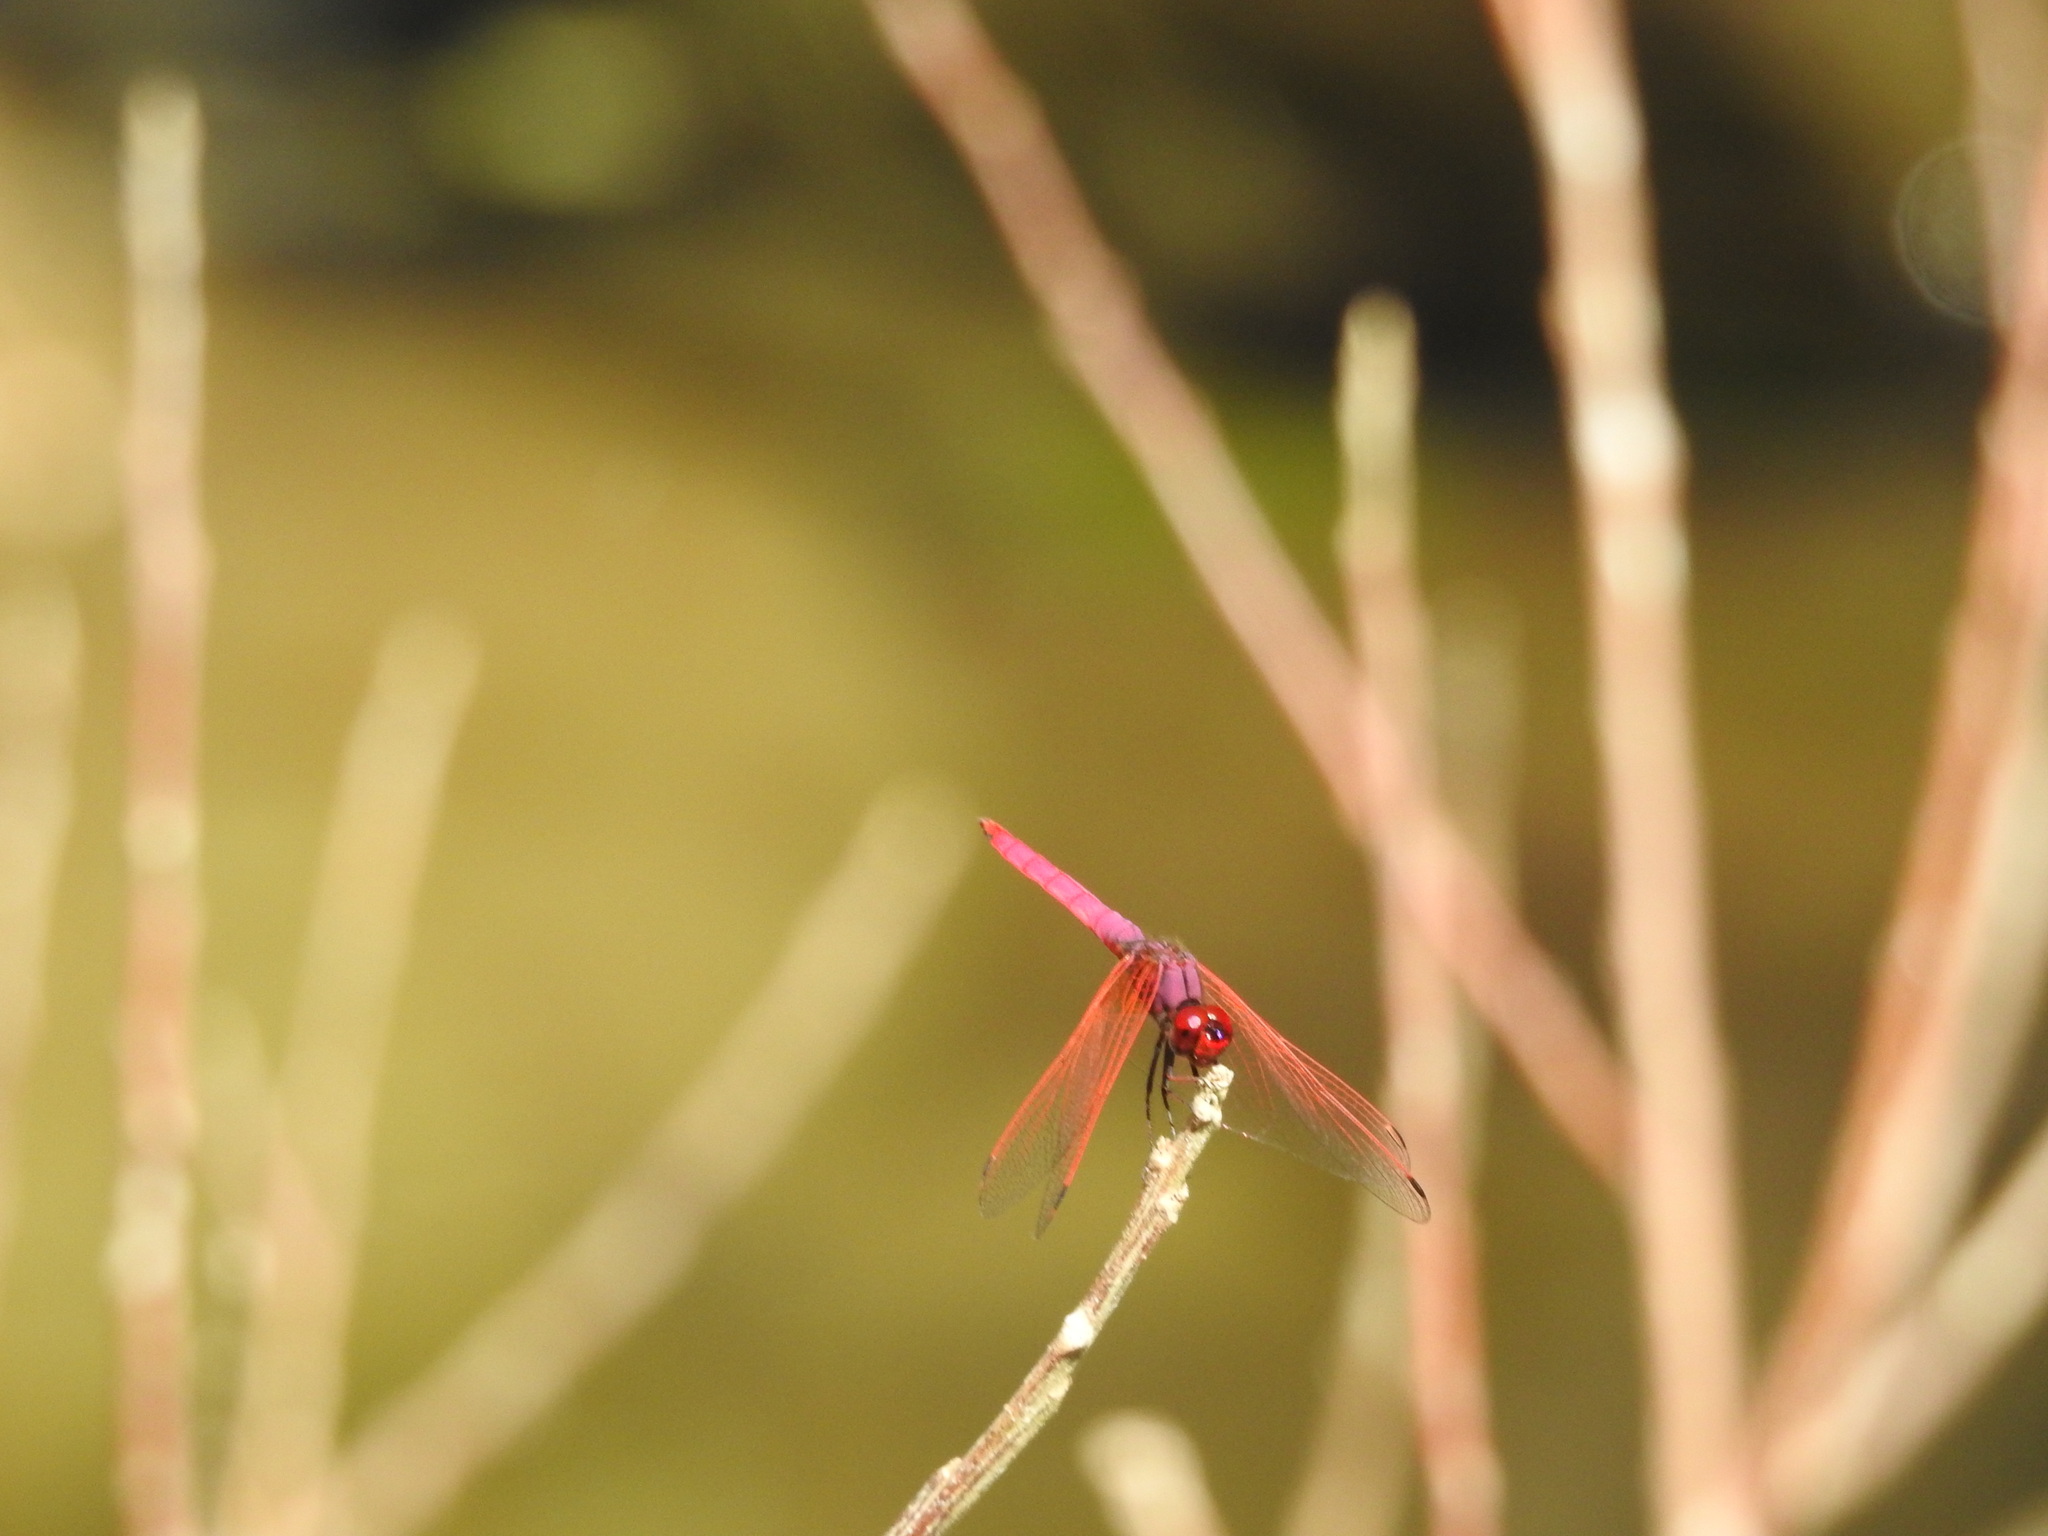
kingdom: Animalia
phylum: Arthropoda
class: Insecta
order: Odonata
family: Libellulidae
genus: Trithemis
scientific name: Trithemis aurora
